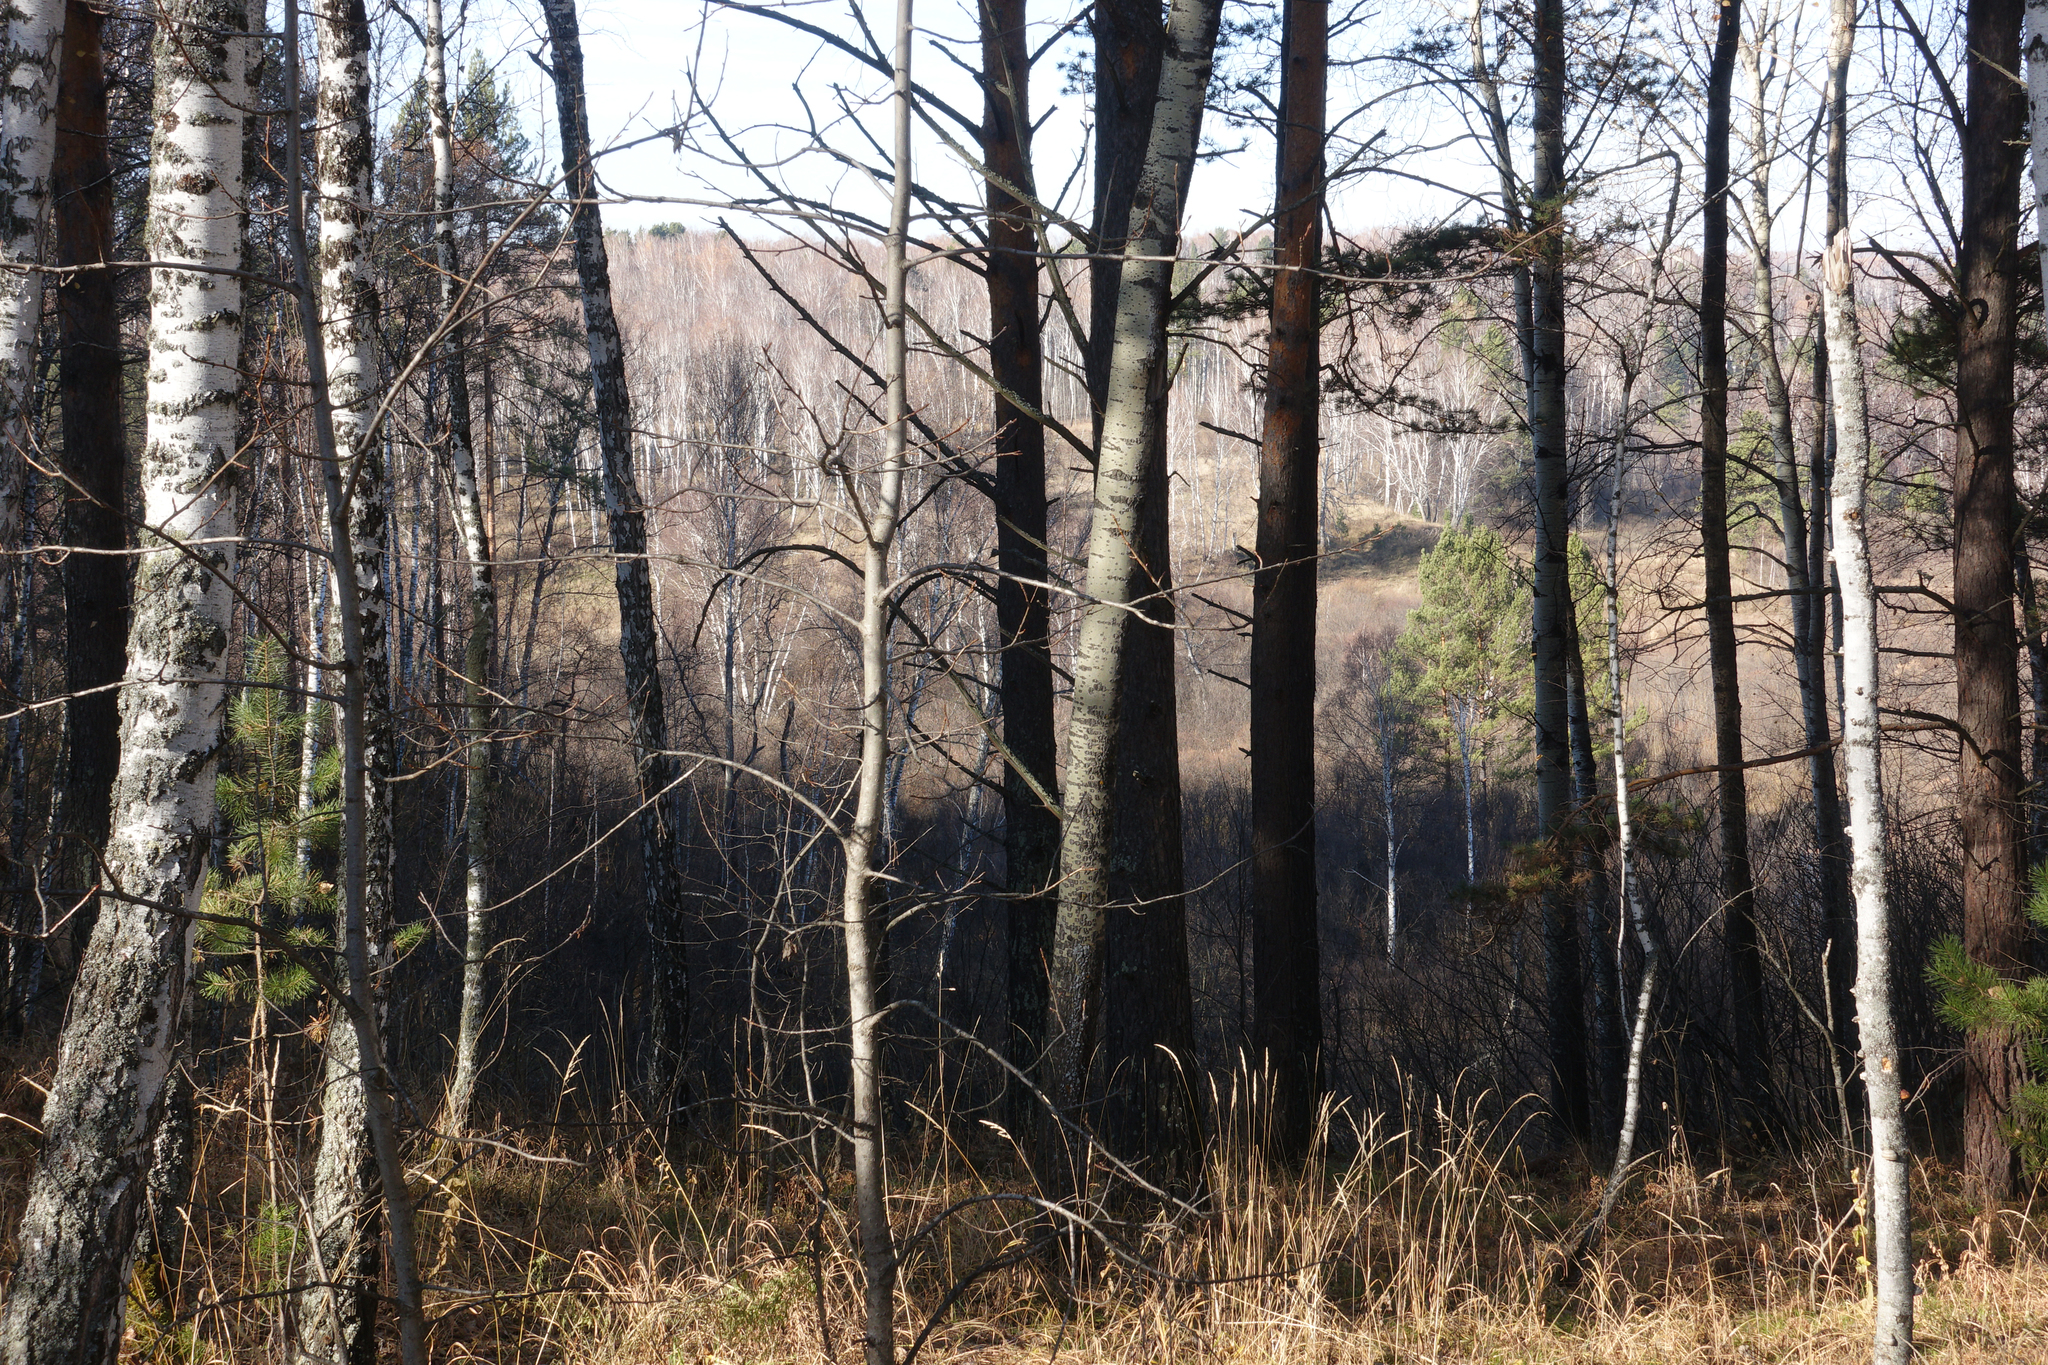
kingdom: Plantae
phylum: Tracheophyta
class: Magnoliopsida
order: Malpighiales
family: Salicaceae
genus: Populus
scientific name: Populus tremula
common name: European aspen
